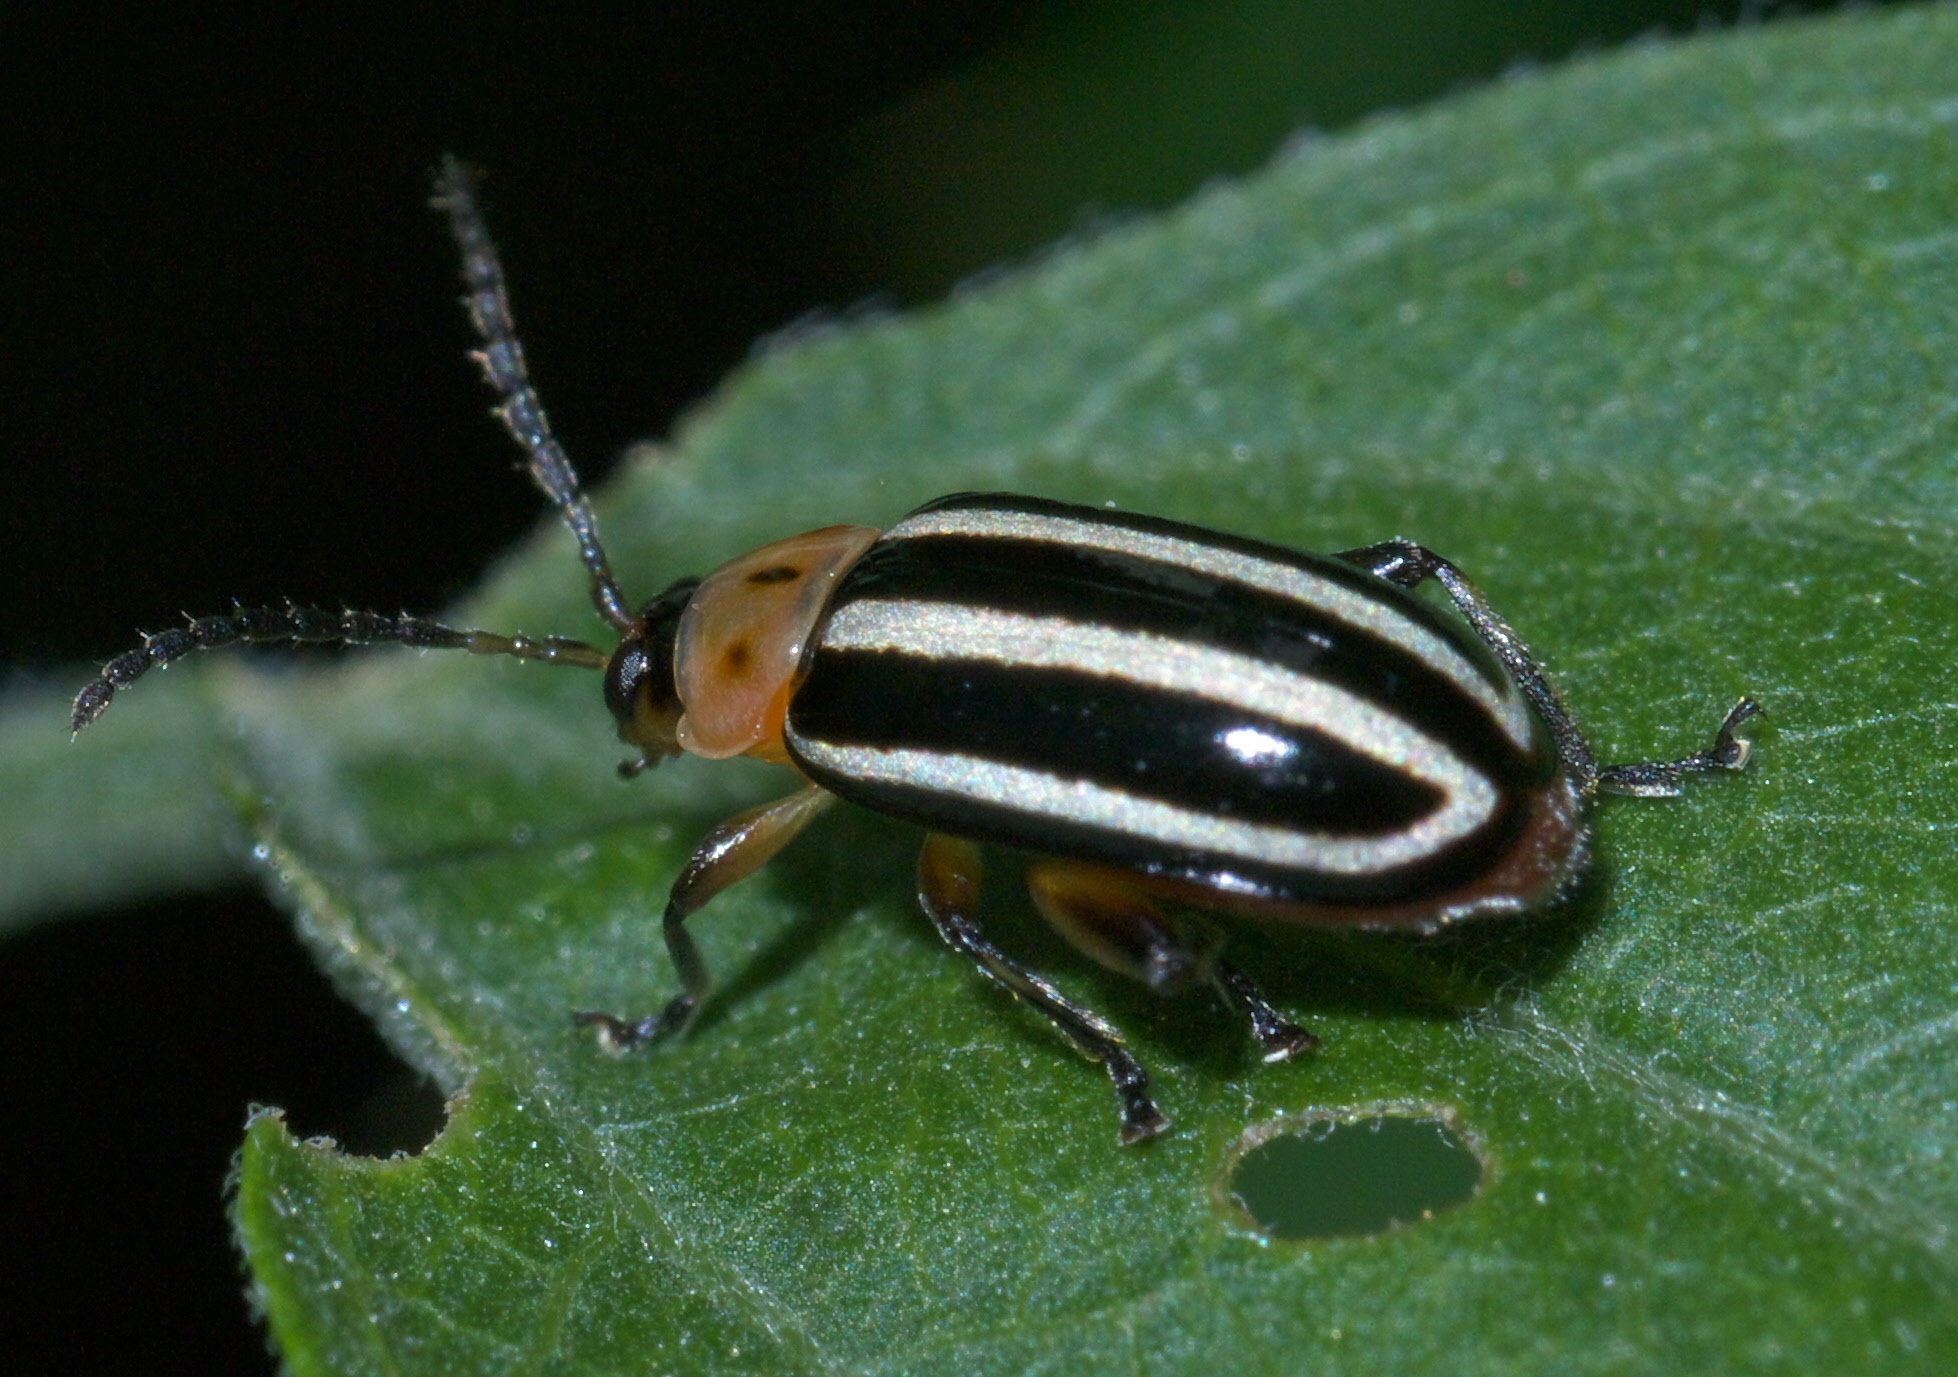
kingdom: Animalia
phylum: Arthropoda
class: Insecta
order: Coleoptera
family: Chrysomelidae
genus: Disonycha
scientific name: Disonycha glabrata
